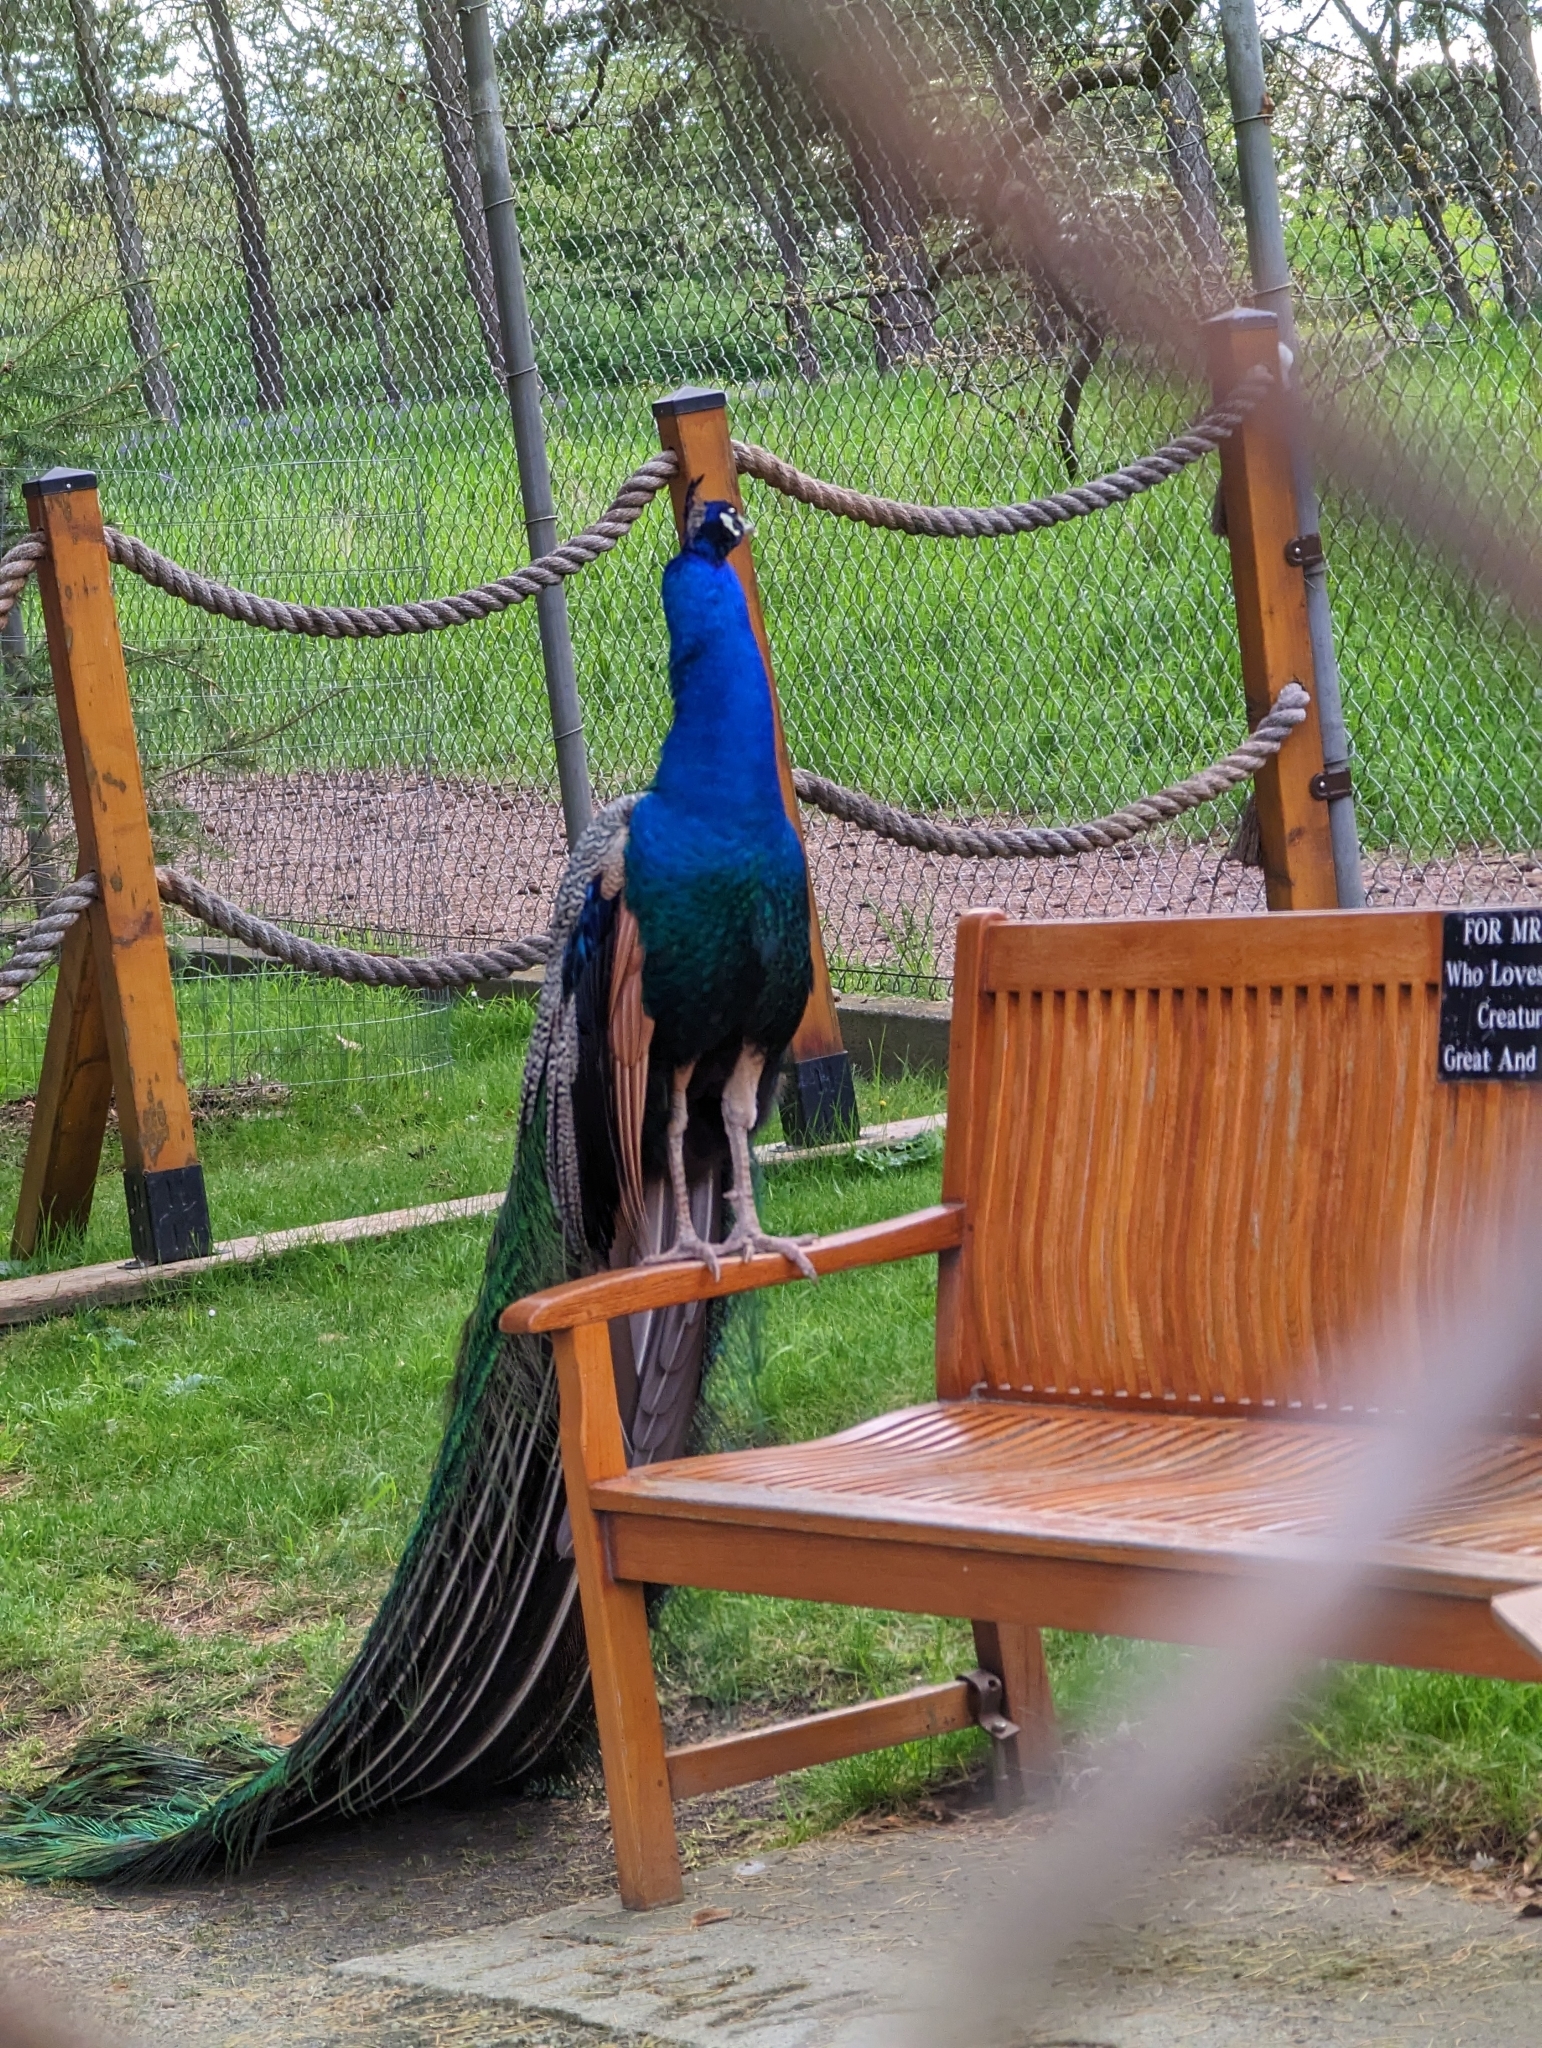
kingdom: Animalia
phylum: Chordata
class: Aves
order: Galliformes
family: Phasianidae
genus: Pavo
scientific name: Pavo cristatus
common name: Indian peafowl
